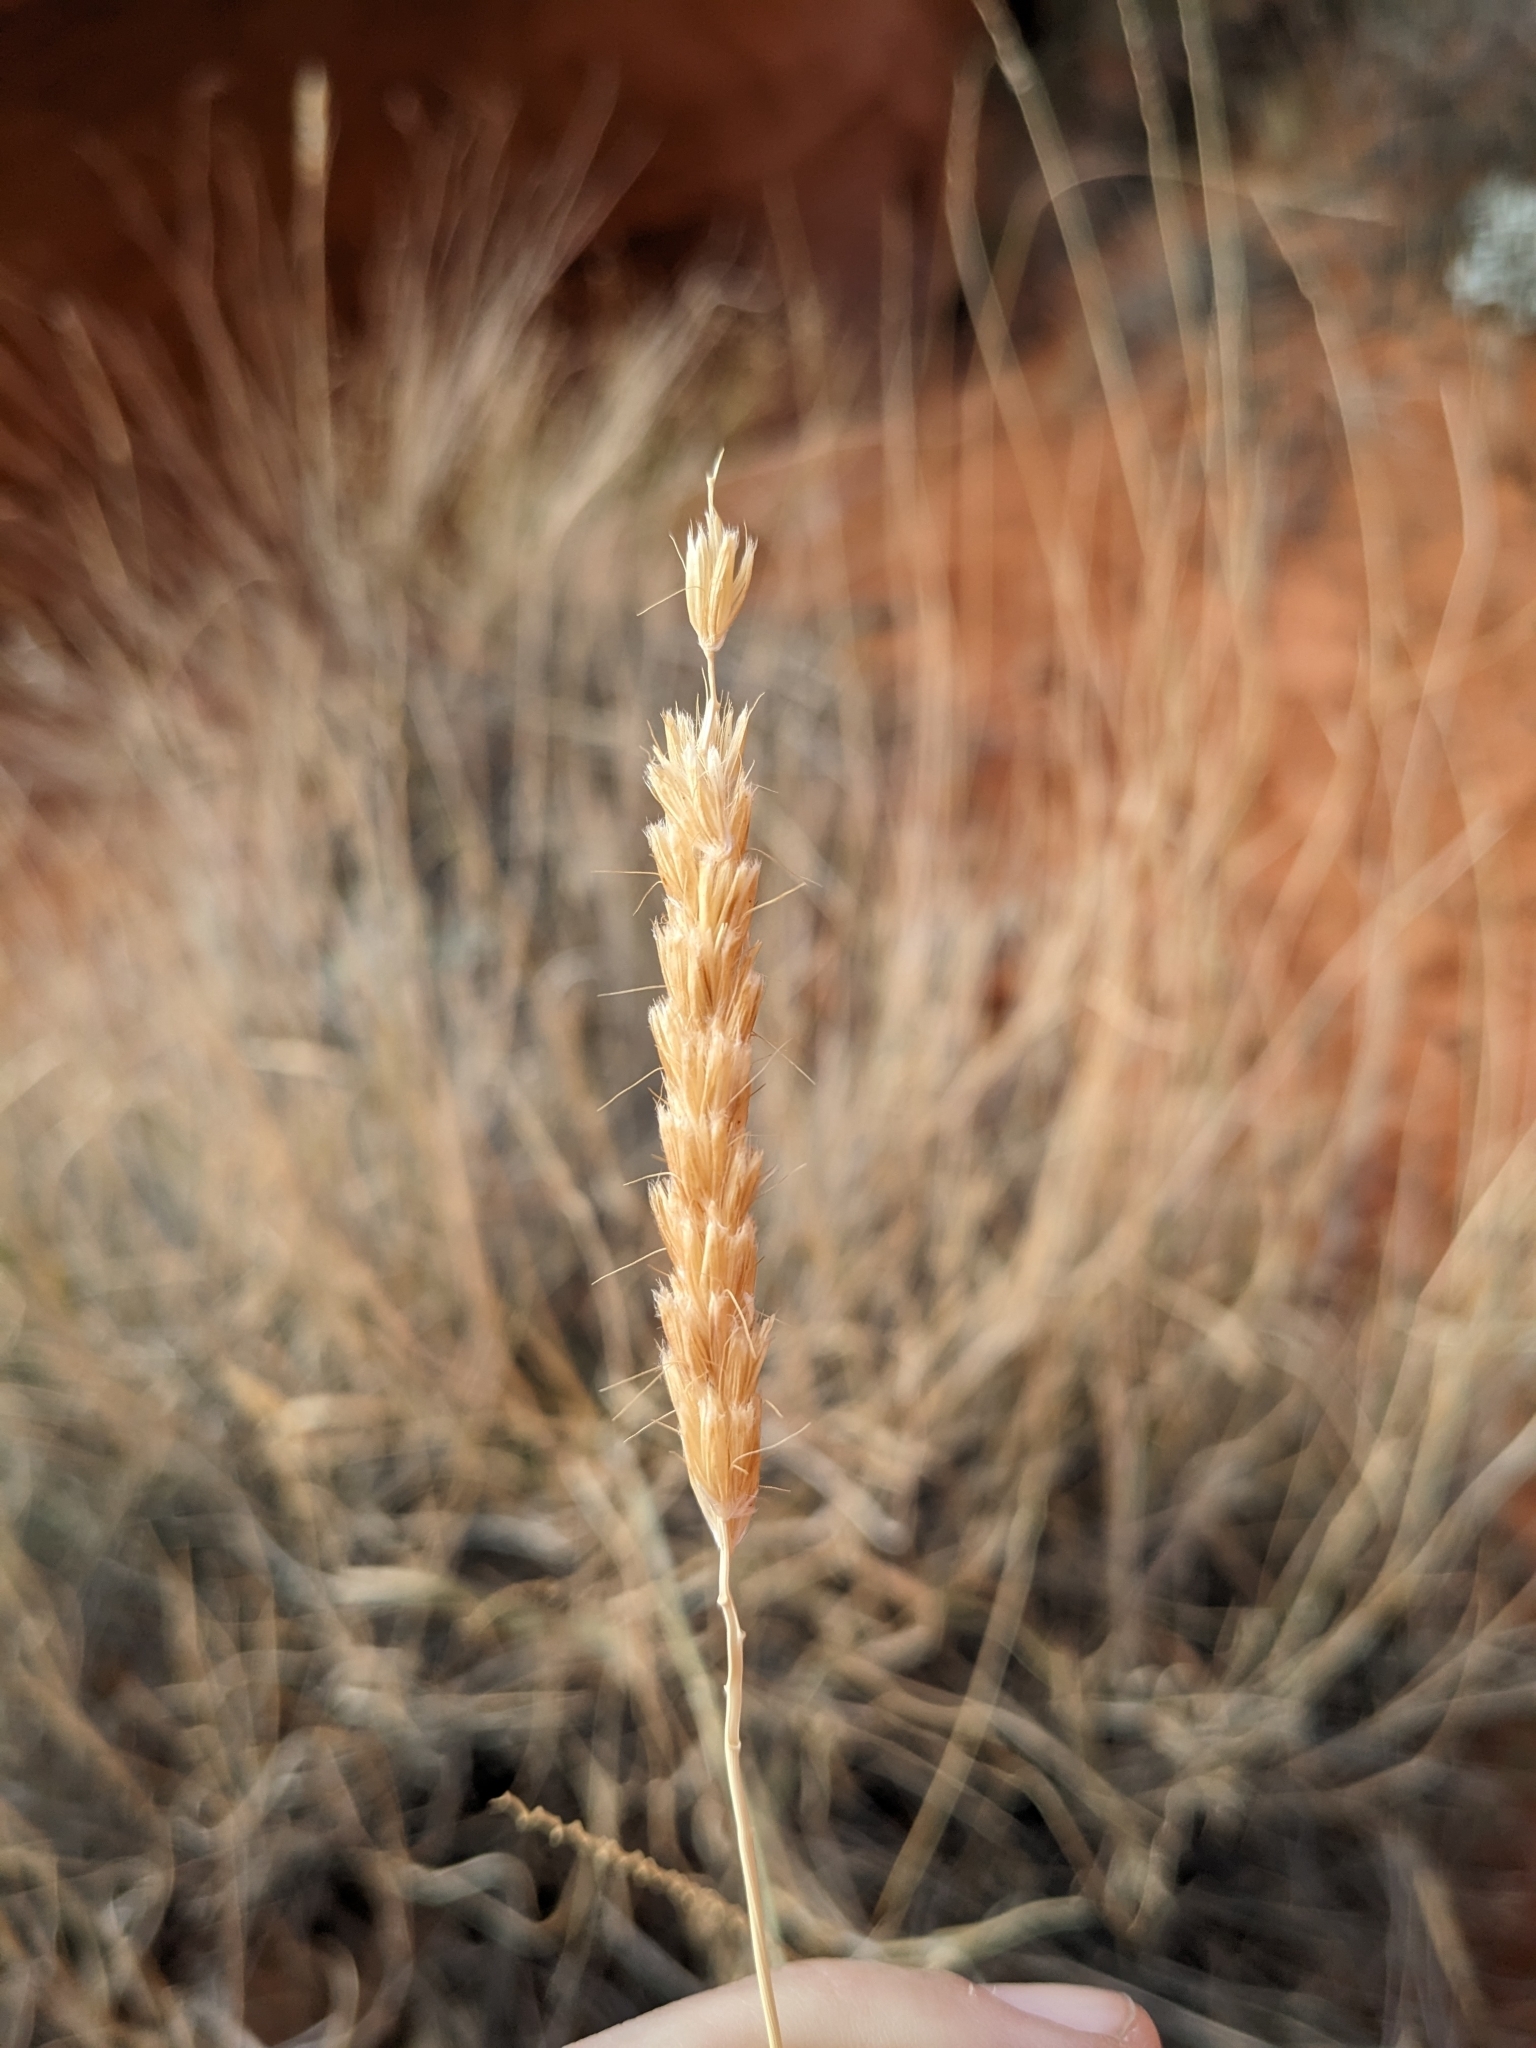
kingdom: Plantae
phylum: Tracheophyta
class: Liliopsida
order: Poales
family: Poaceae
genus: Hilaria
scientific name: Hilaria rigida
